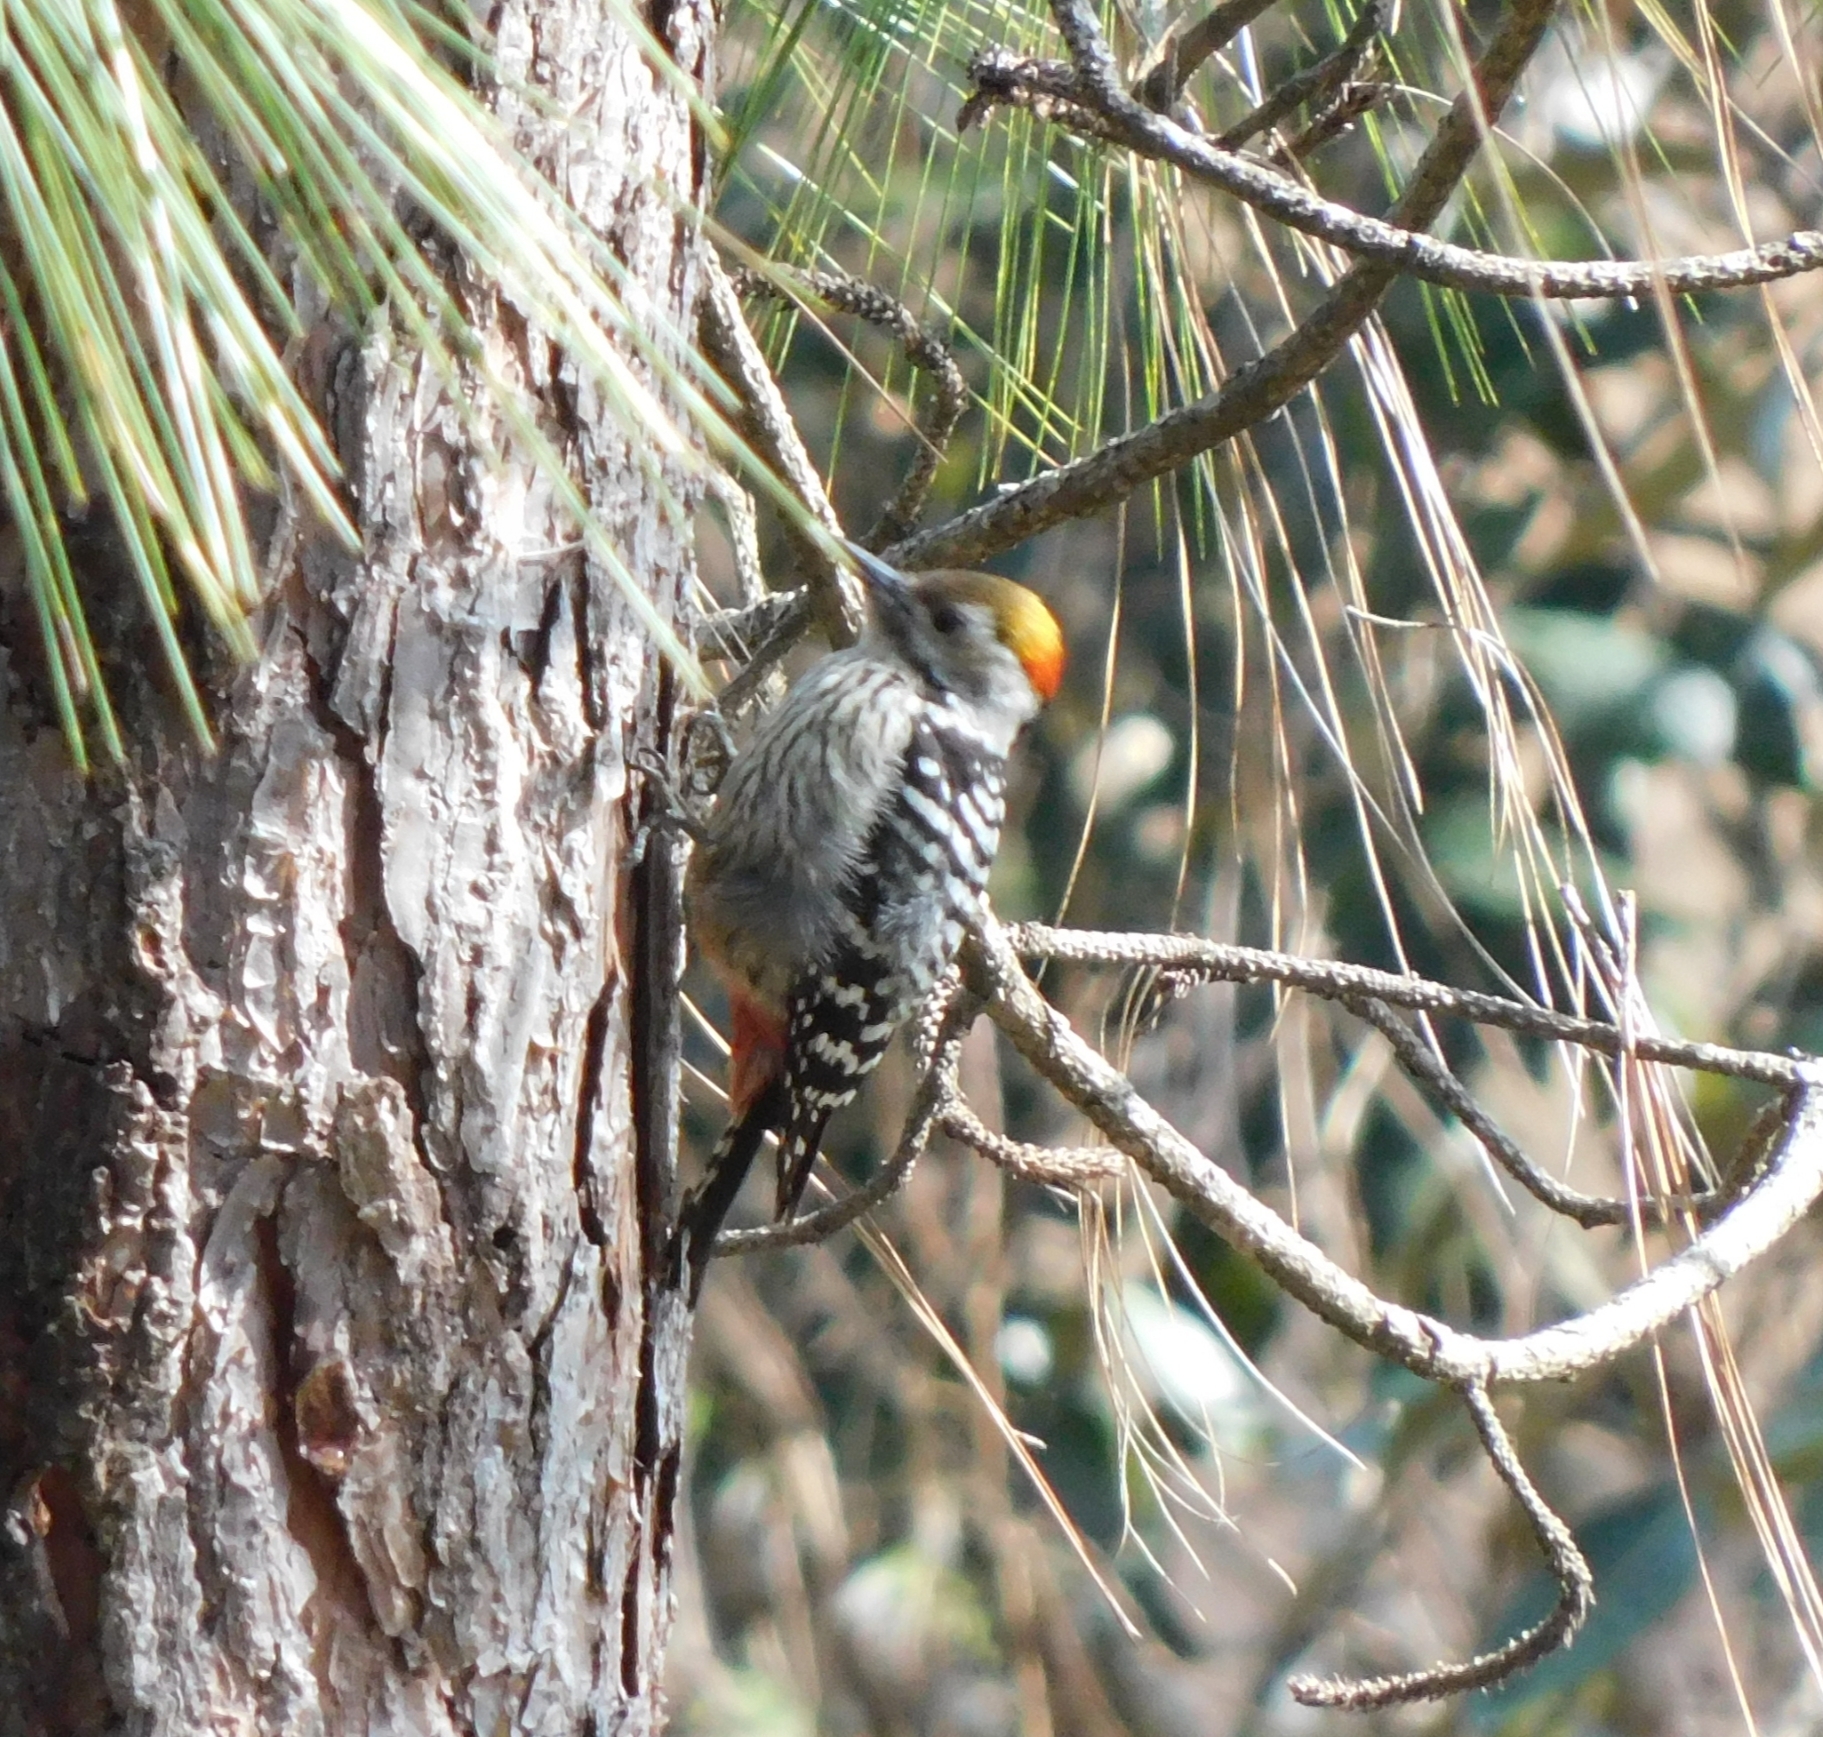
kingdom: Animalia
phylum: Chordata
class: Aves
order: Piciformes
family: Picidae
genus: Dendrocoptes
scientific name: Dendrocoptes auriceps
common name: Brown-fronted woodpecker
